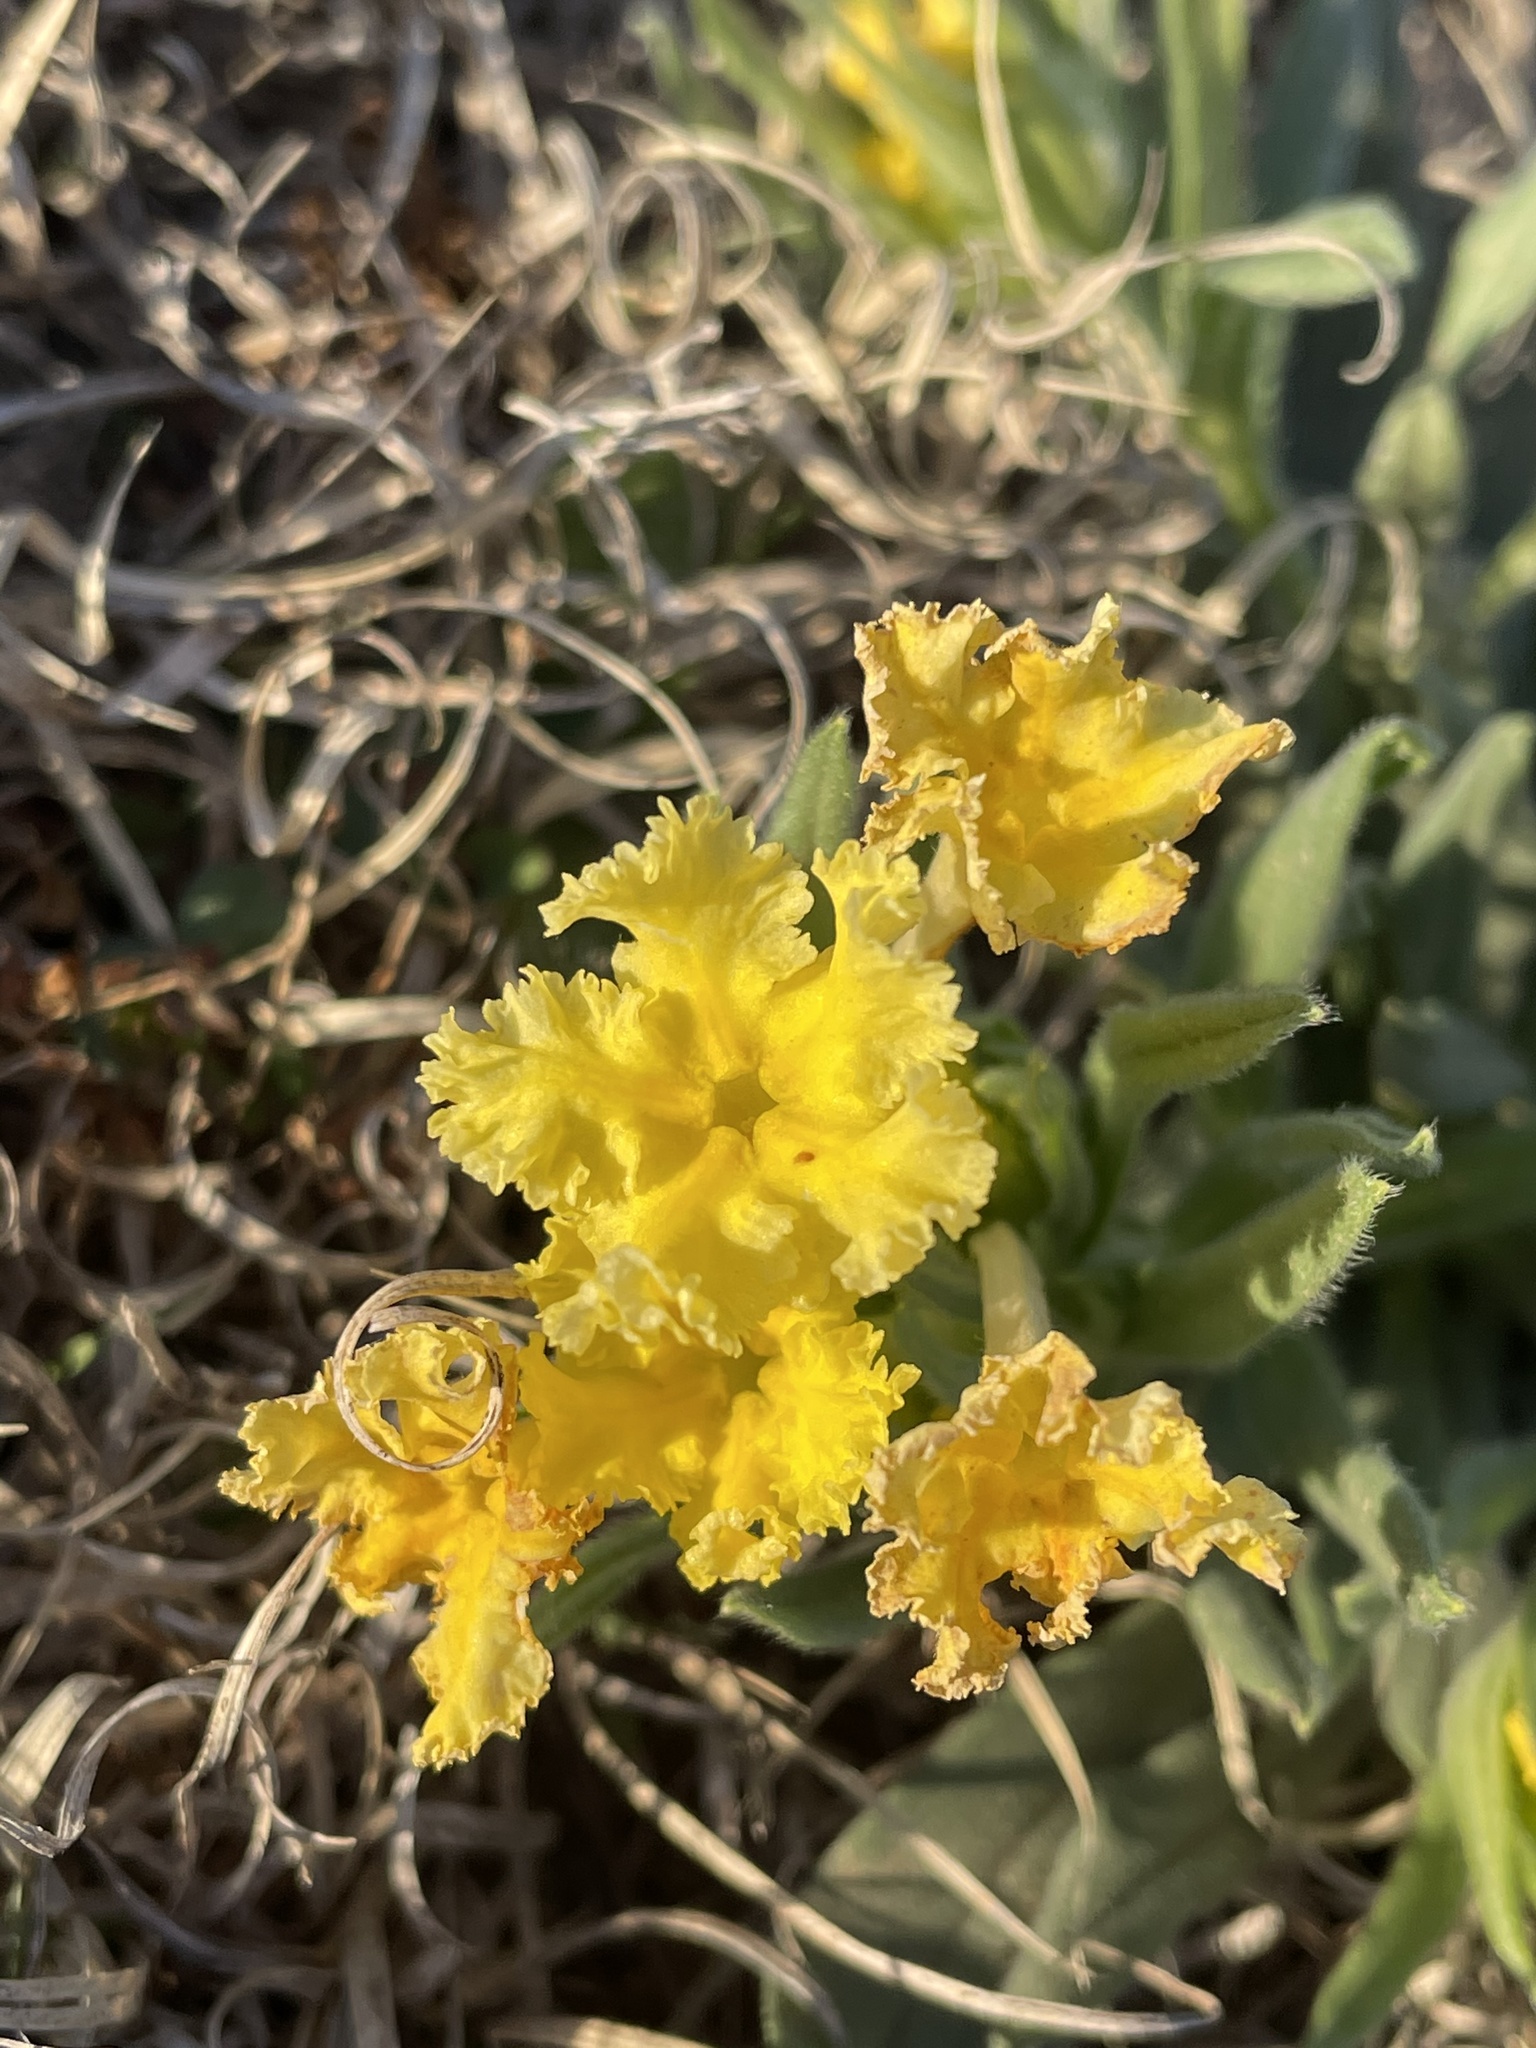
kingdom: Plantae
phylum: Tracheophyta
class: Magnoliopsida
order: Boraginales
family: Boraginaceae
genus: Lithospermum
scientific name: Lithospermum incisum
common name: Fringed gromwell
